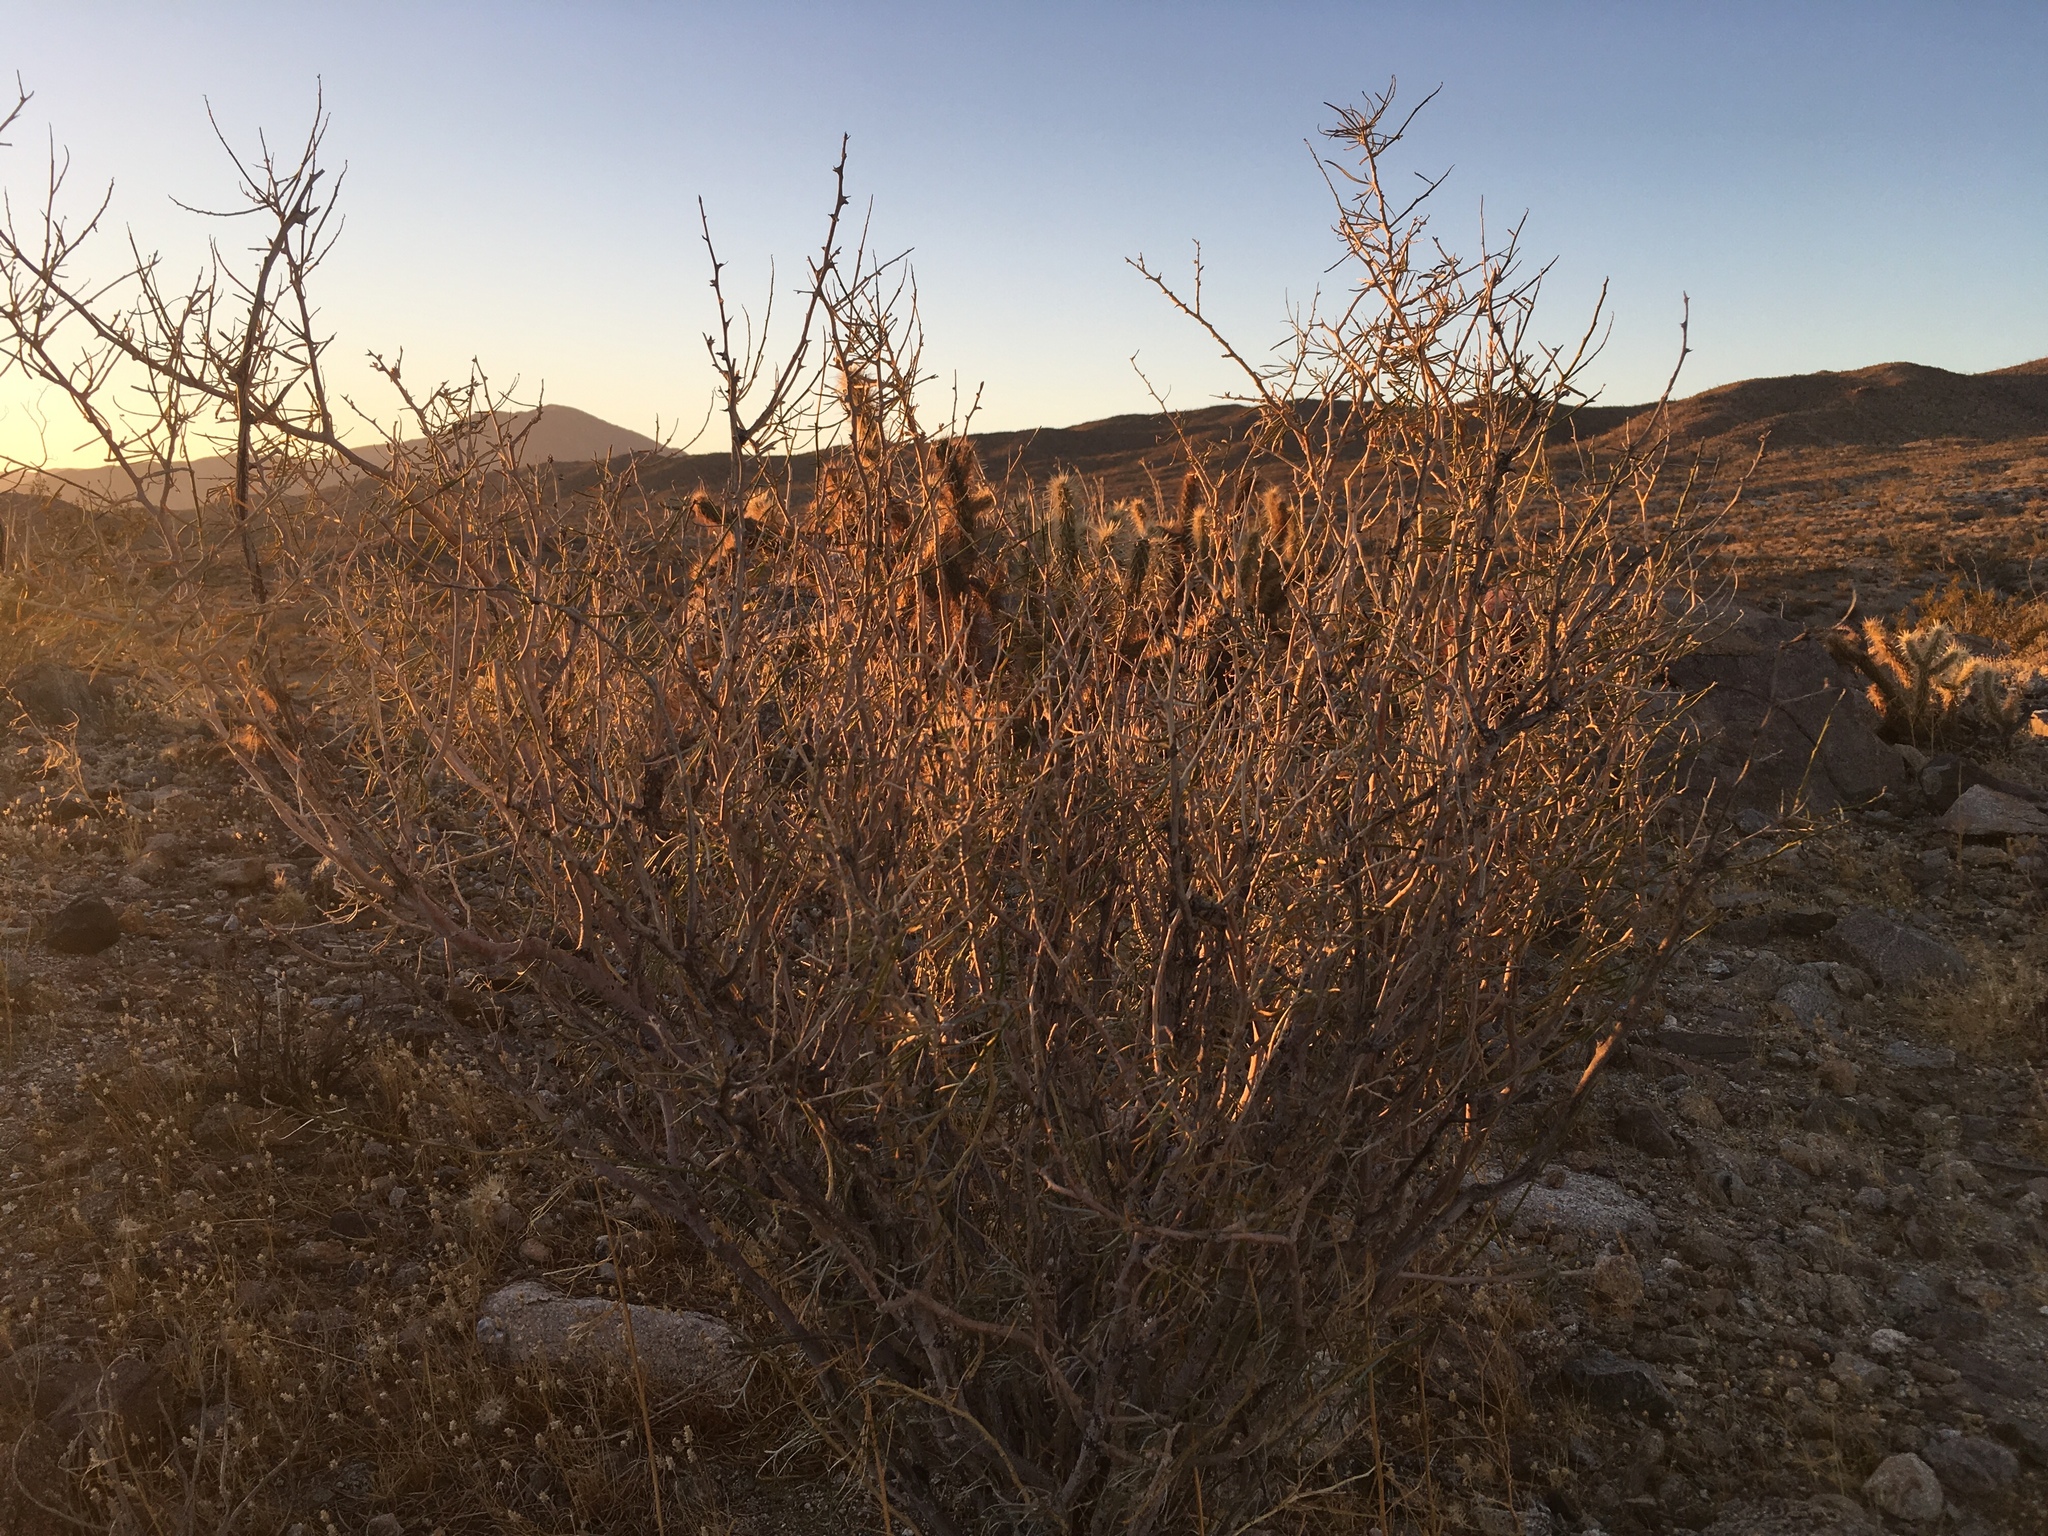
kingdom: Plantae
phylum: Tracheophyta
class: Magnoliopsida
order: Fabales
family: Fabaceae
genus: Psorothamnus
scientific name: Psorothamnus schottii
